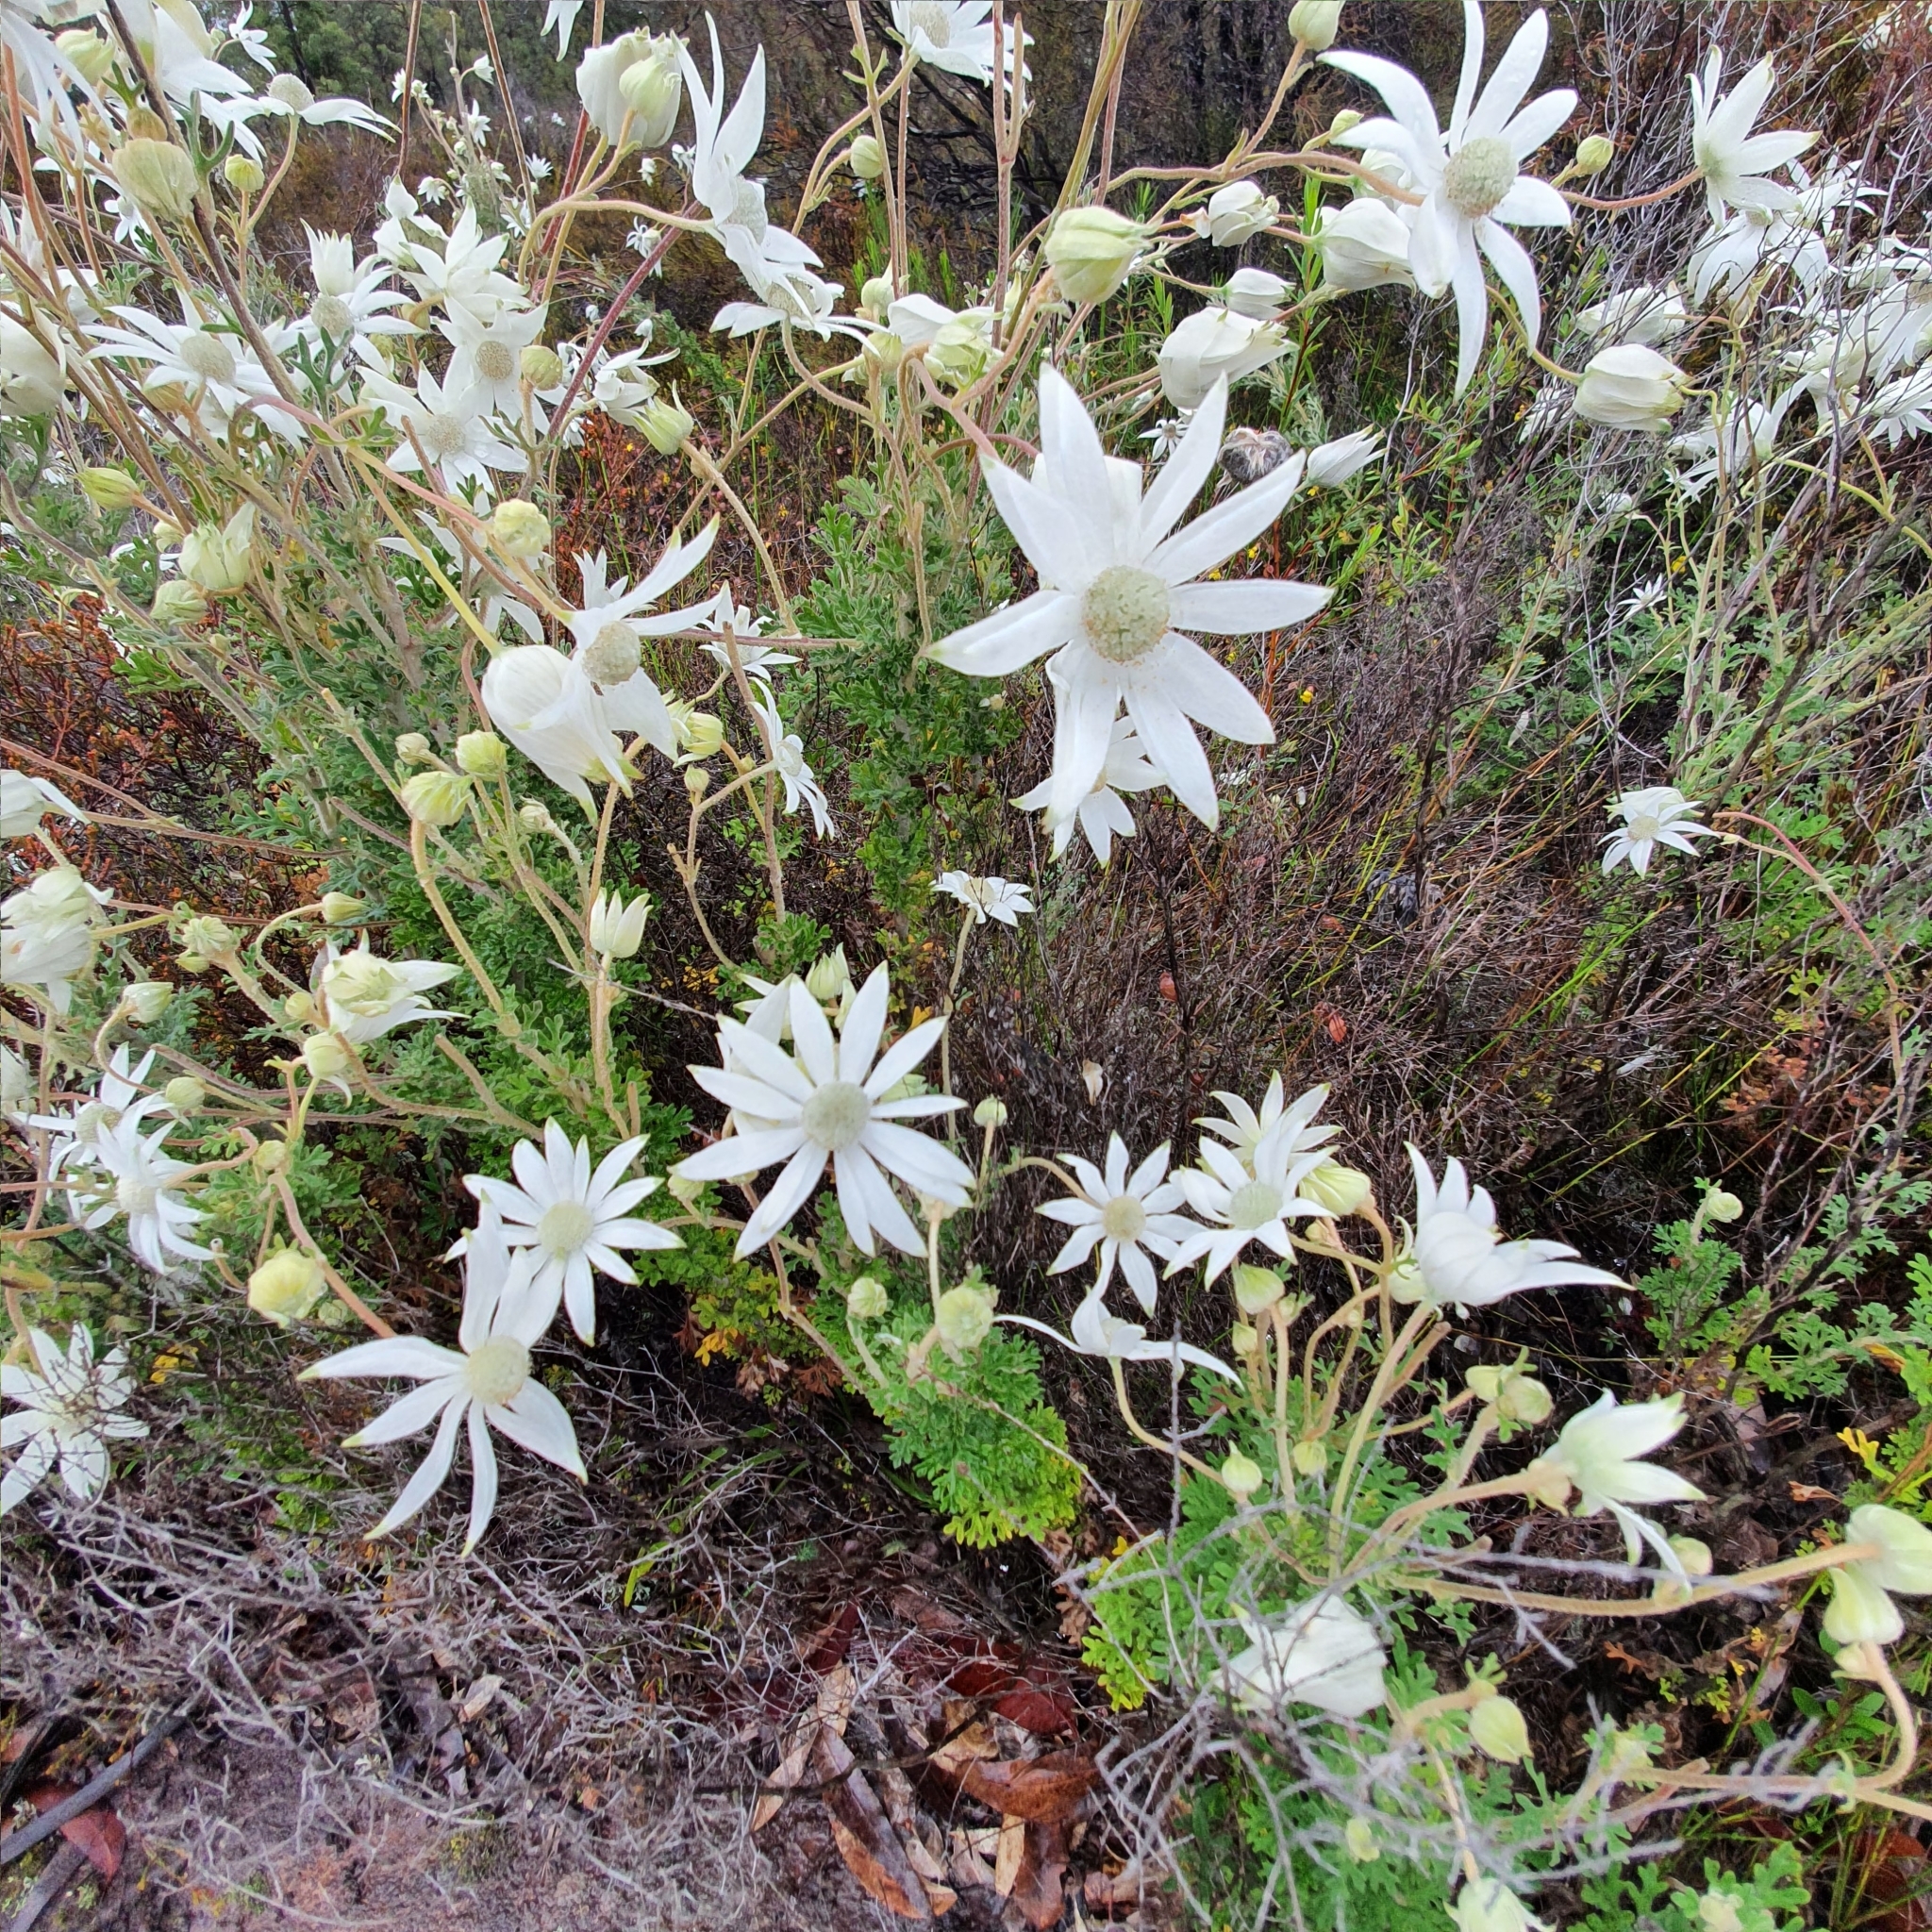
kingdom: Plantae
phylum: Tracheophyta
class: Magnoliopsida
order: Apiales
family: Apiaceae
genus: Actinotus
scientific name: Actinotus helianthi
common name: Flannel-flower
